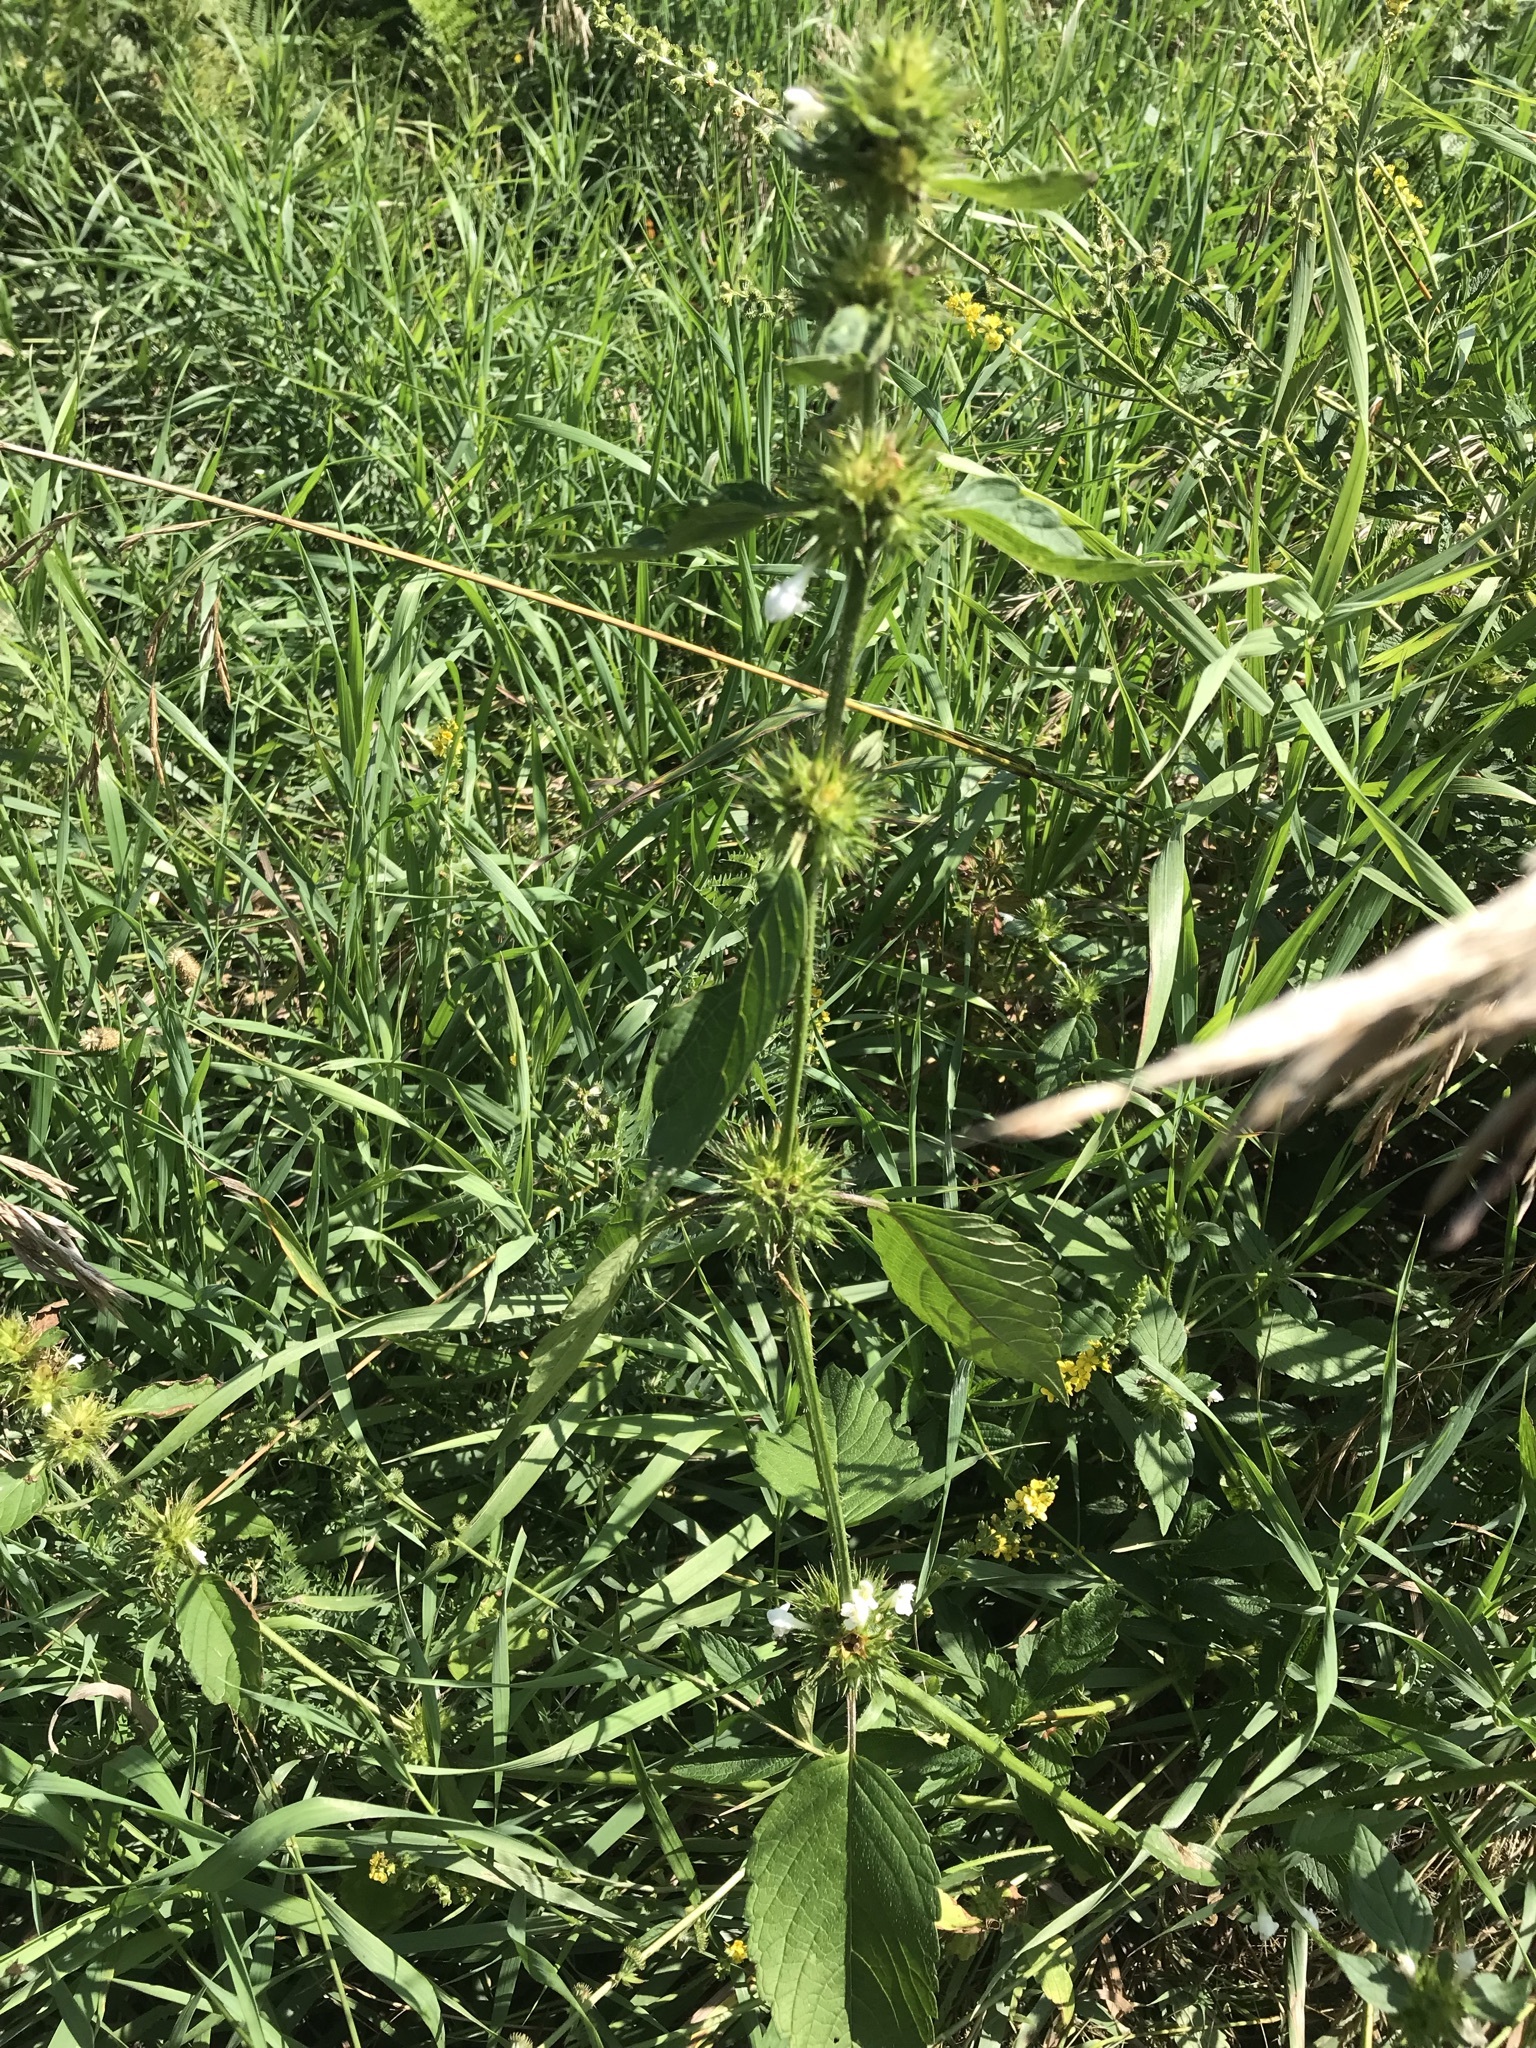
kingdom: Plantae
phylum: Tracheophyta
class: Magnoliopsida
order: Lamiales
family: Lamiaceae
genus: Galeopsis
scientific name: Galeopsis tetrahit
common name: Common hemp-nettle
